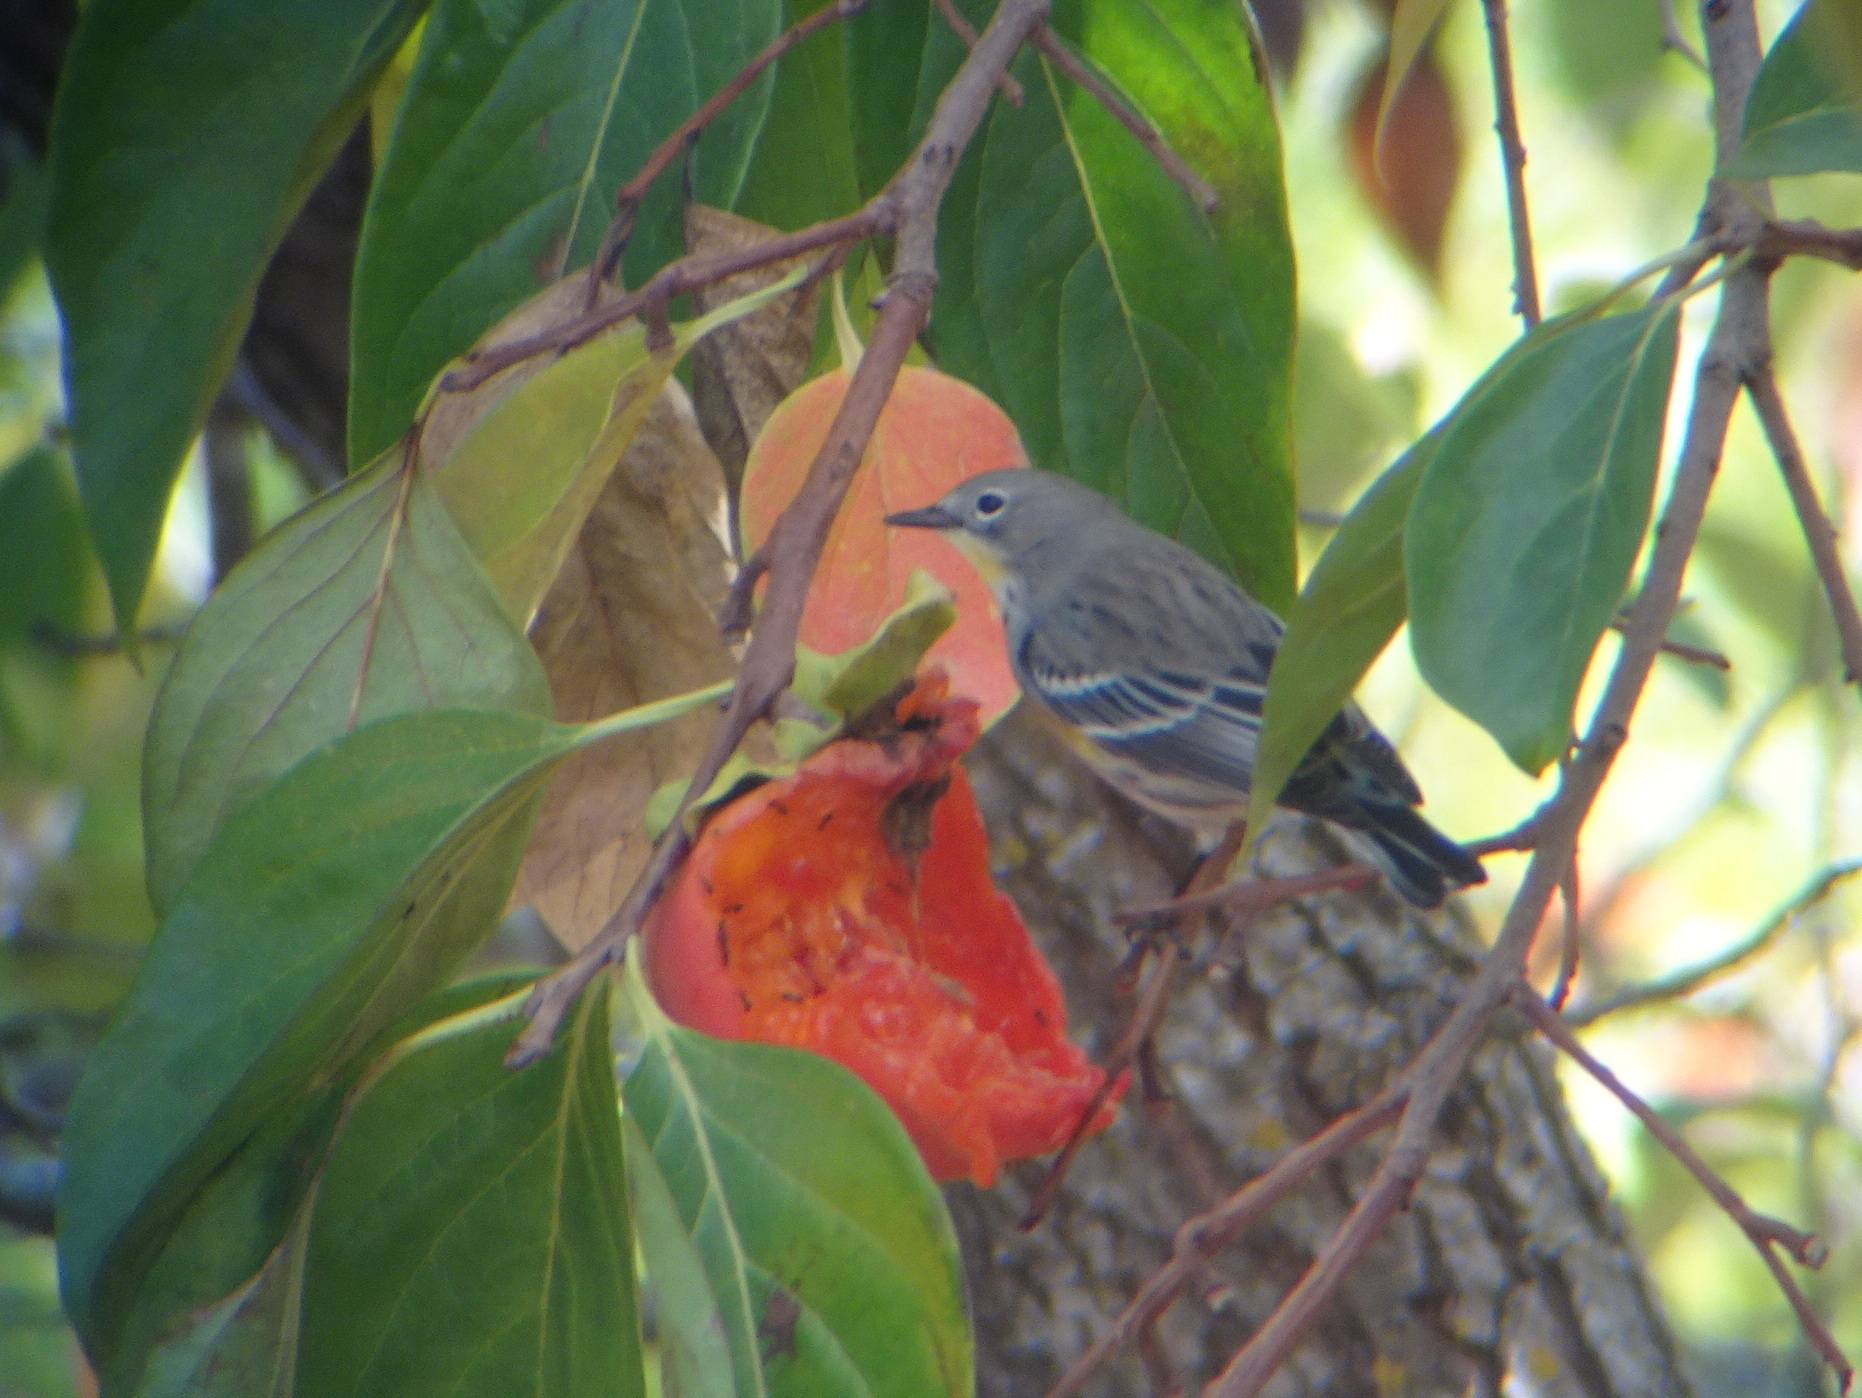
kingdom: Animalia
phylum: Chordata
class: Aves
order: Passeriformes
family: Parulidae
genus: Setophaga
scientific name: Setophaga coronata
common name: Myrtle warbler
